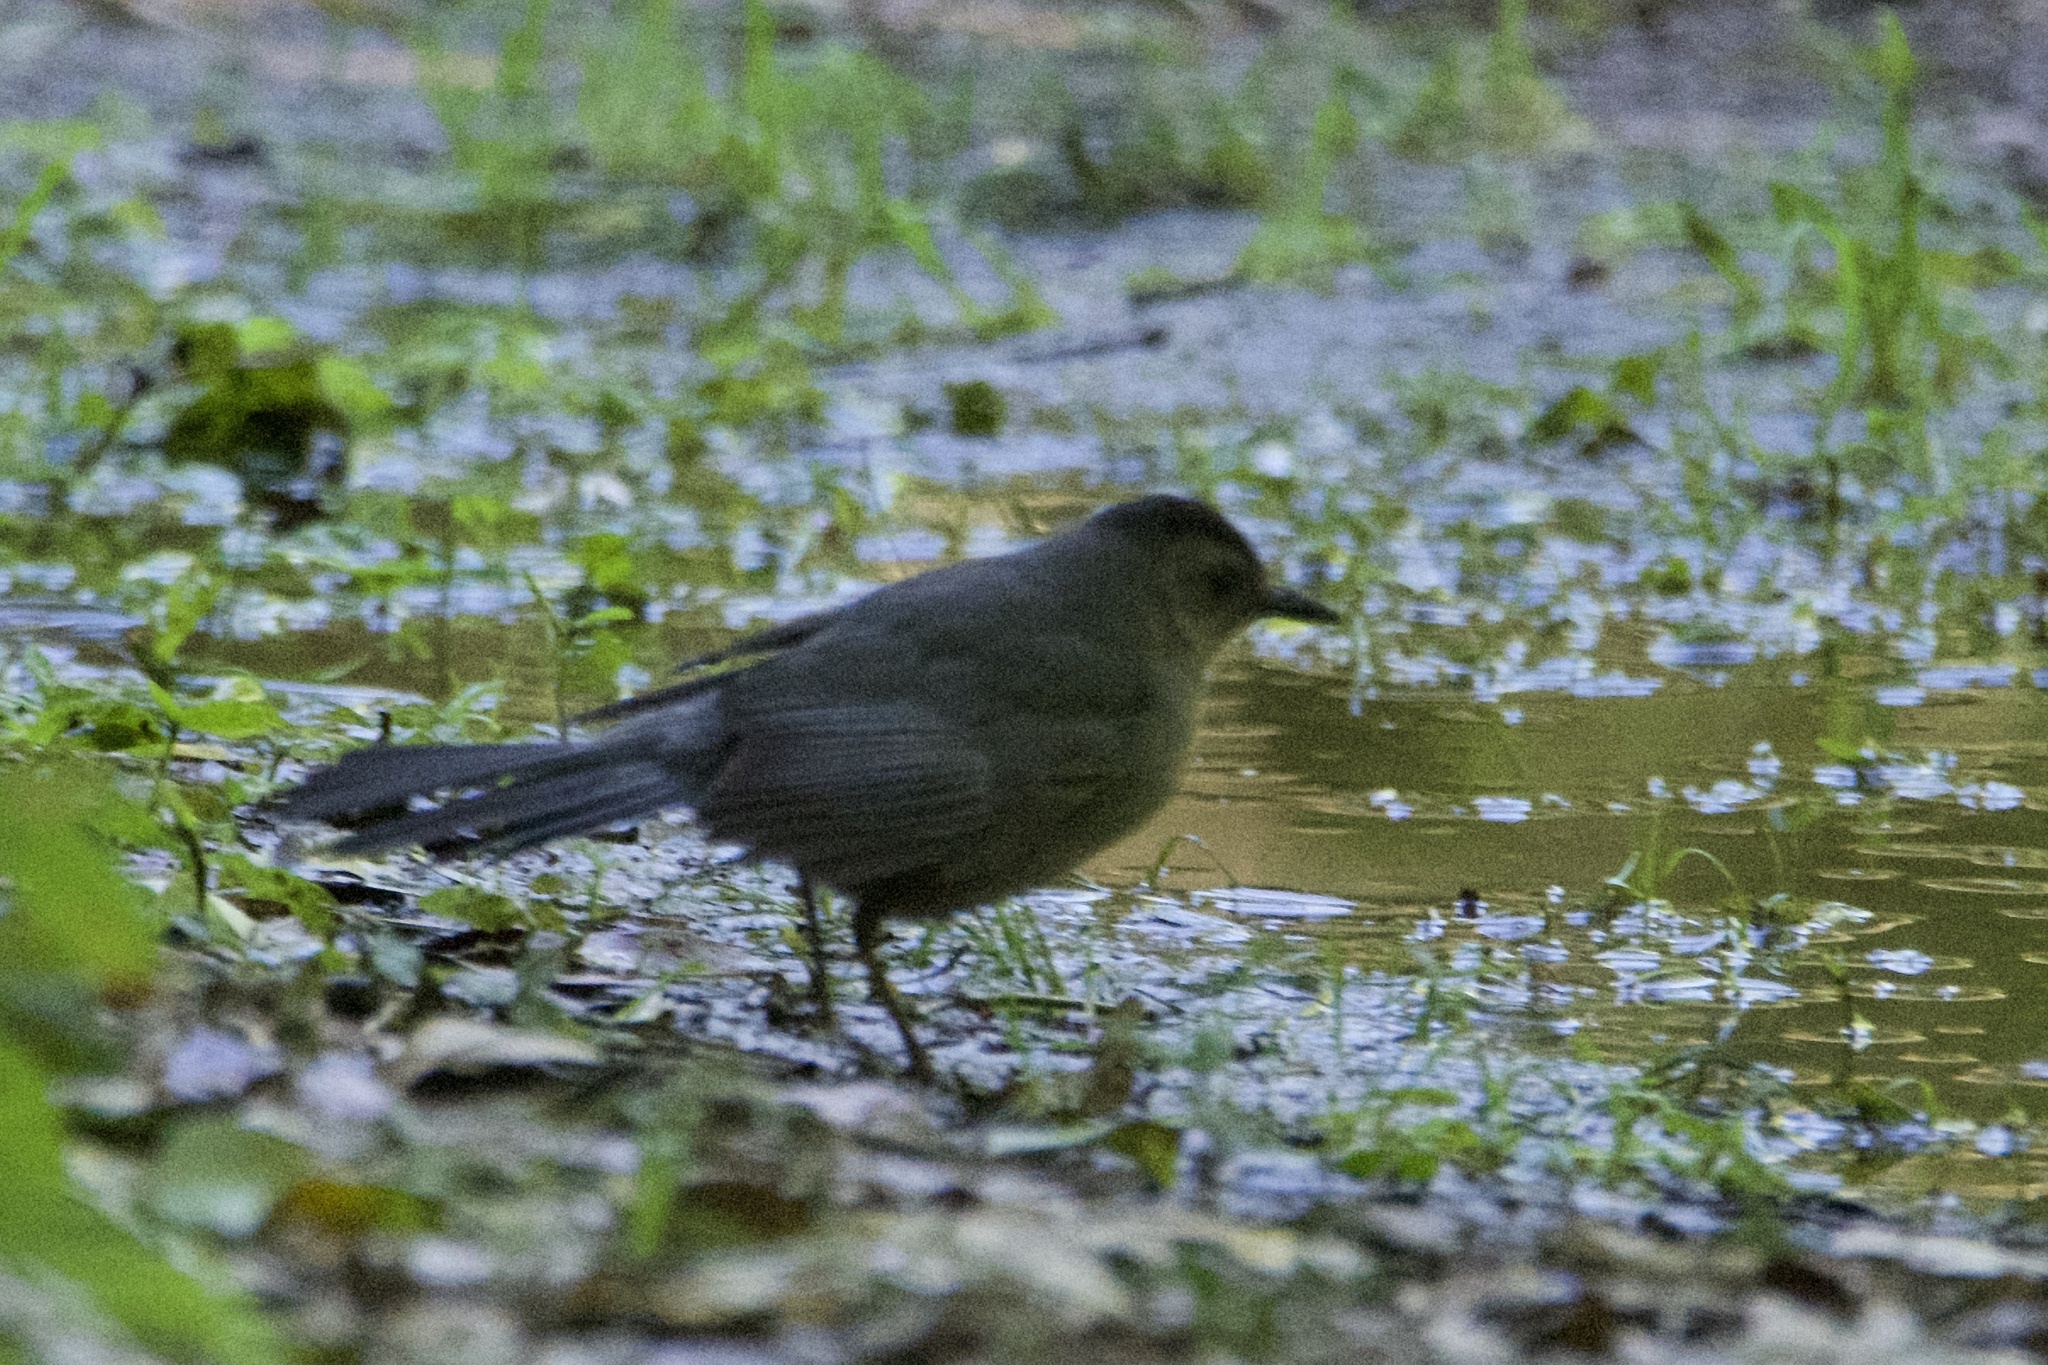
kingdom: Animalia
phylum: Chordata
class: Aves
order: Passeriformes
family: Mimidae
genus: Dumetella
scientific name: Dumetella carolinensis
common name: Gray catbird
